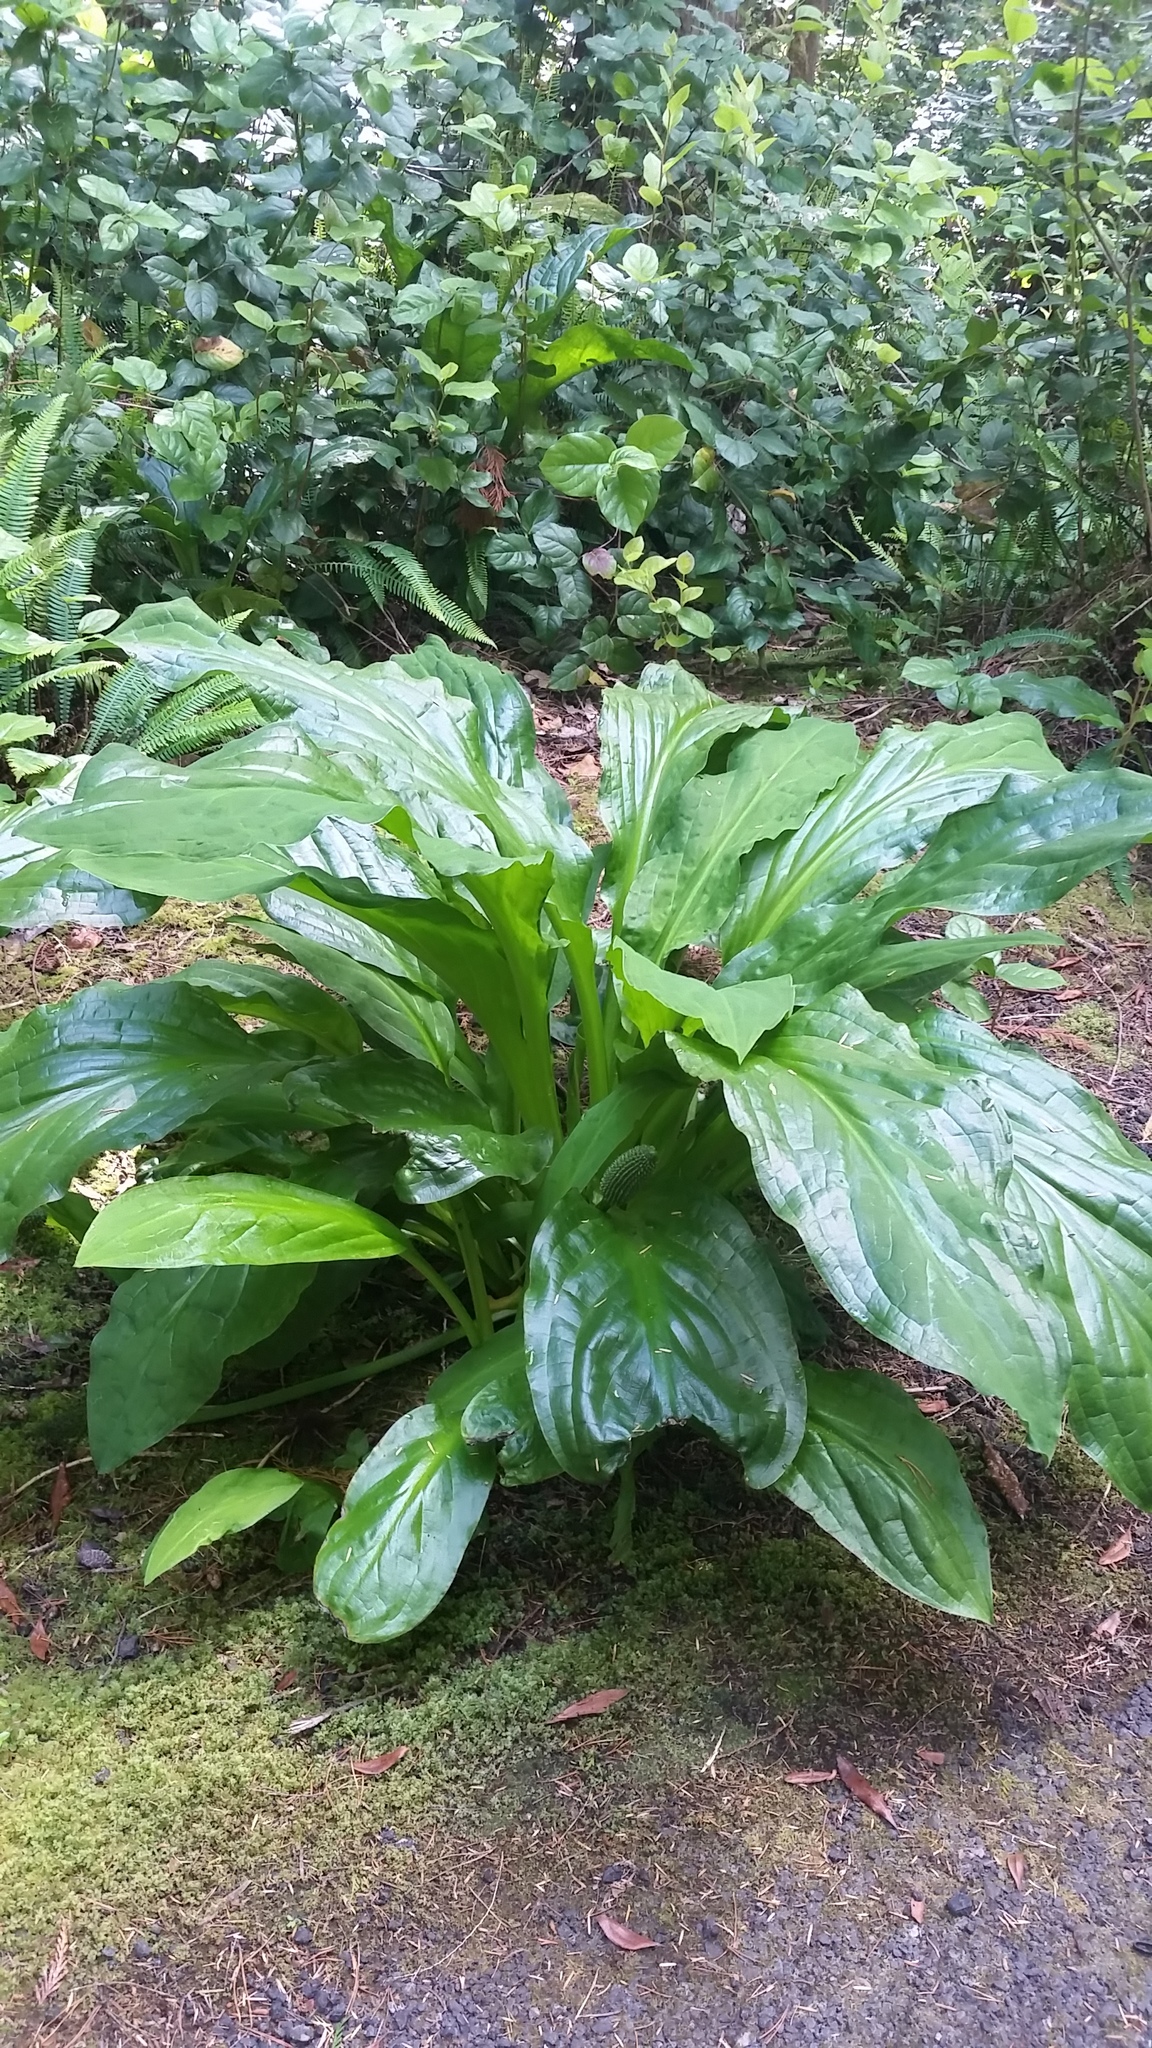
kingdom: Plantae
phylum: Tracheophyta
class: Liliopsida
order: Alismatales
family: Araceae
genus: Lysichiton
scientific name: Lysichiton americanus
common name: American skunk cabbage
